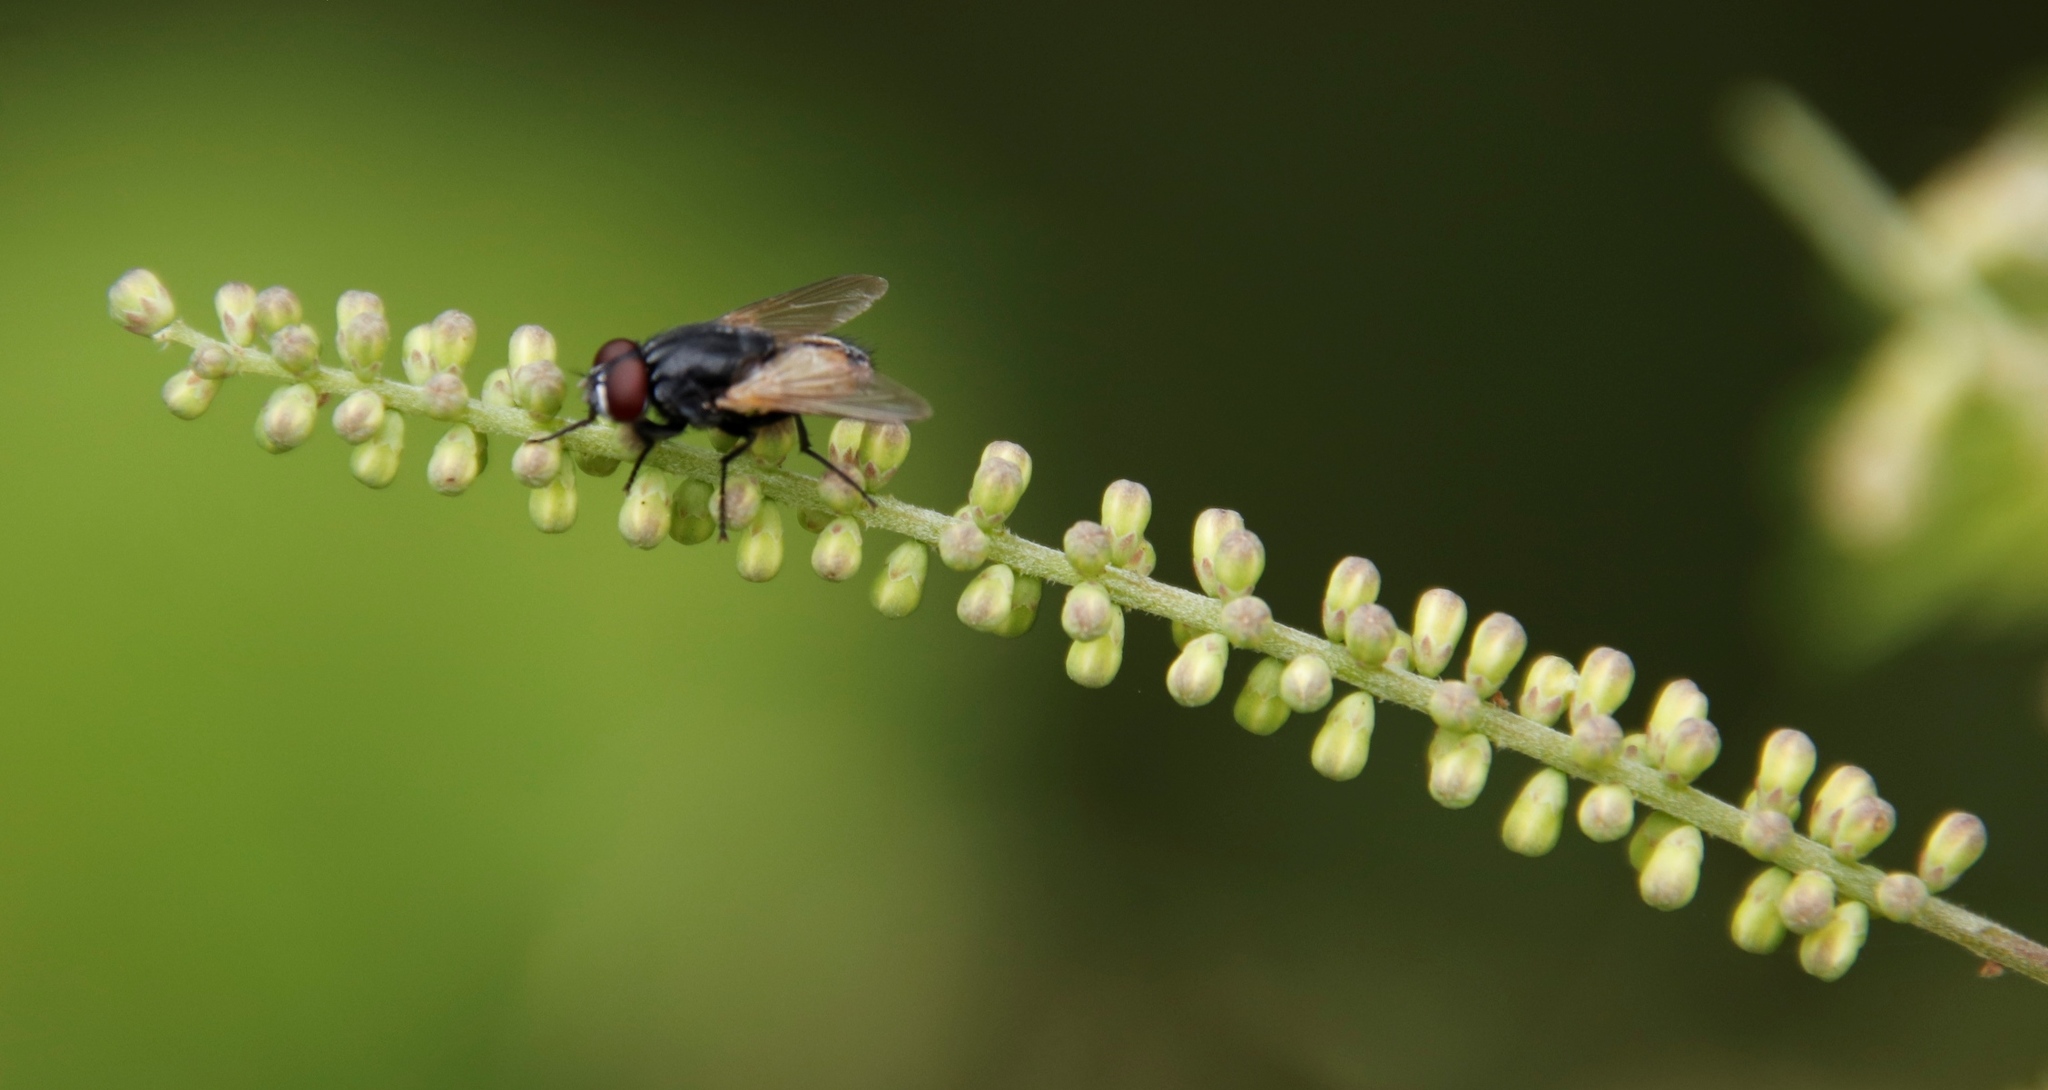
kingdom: Plantae
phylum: Tracheophyta
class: Magnoliopsida
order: Fabales
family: Fabaceae
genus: Senegalia
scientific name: Senegalia ataxacantha
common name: Flame acacia
